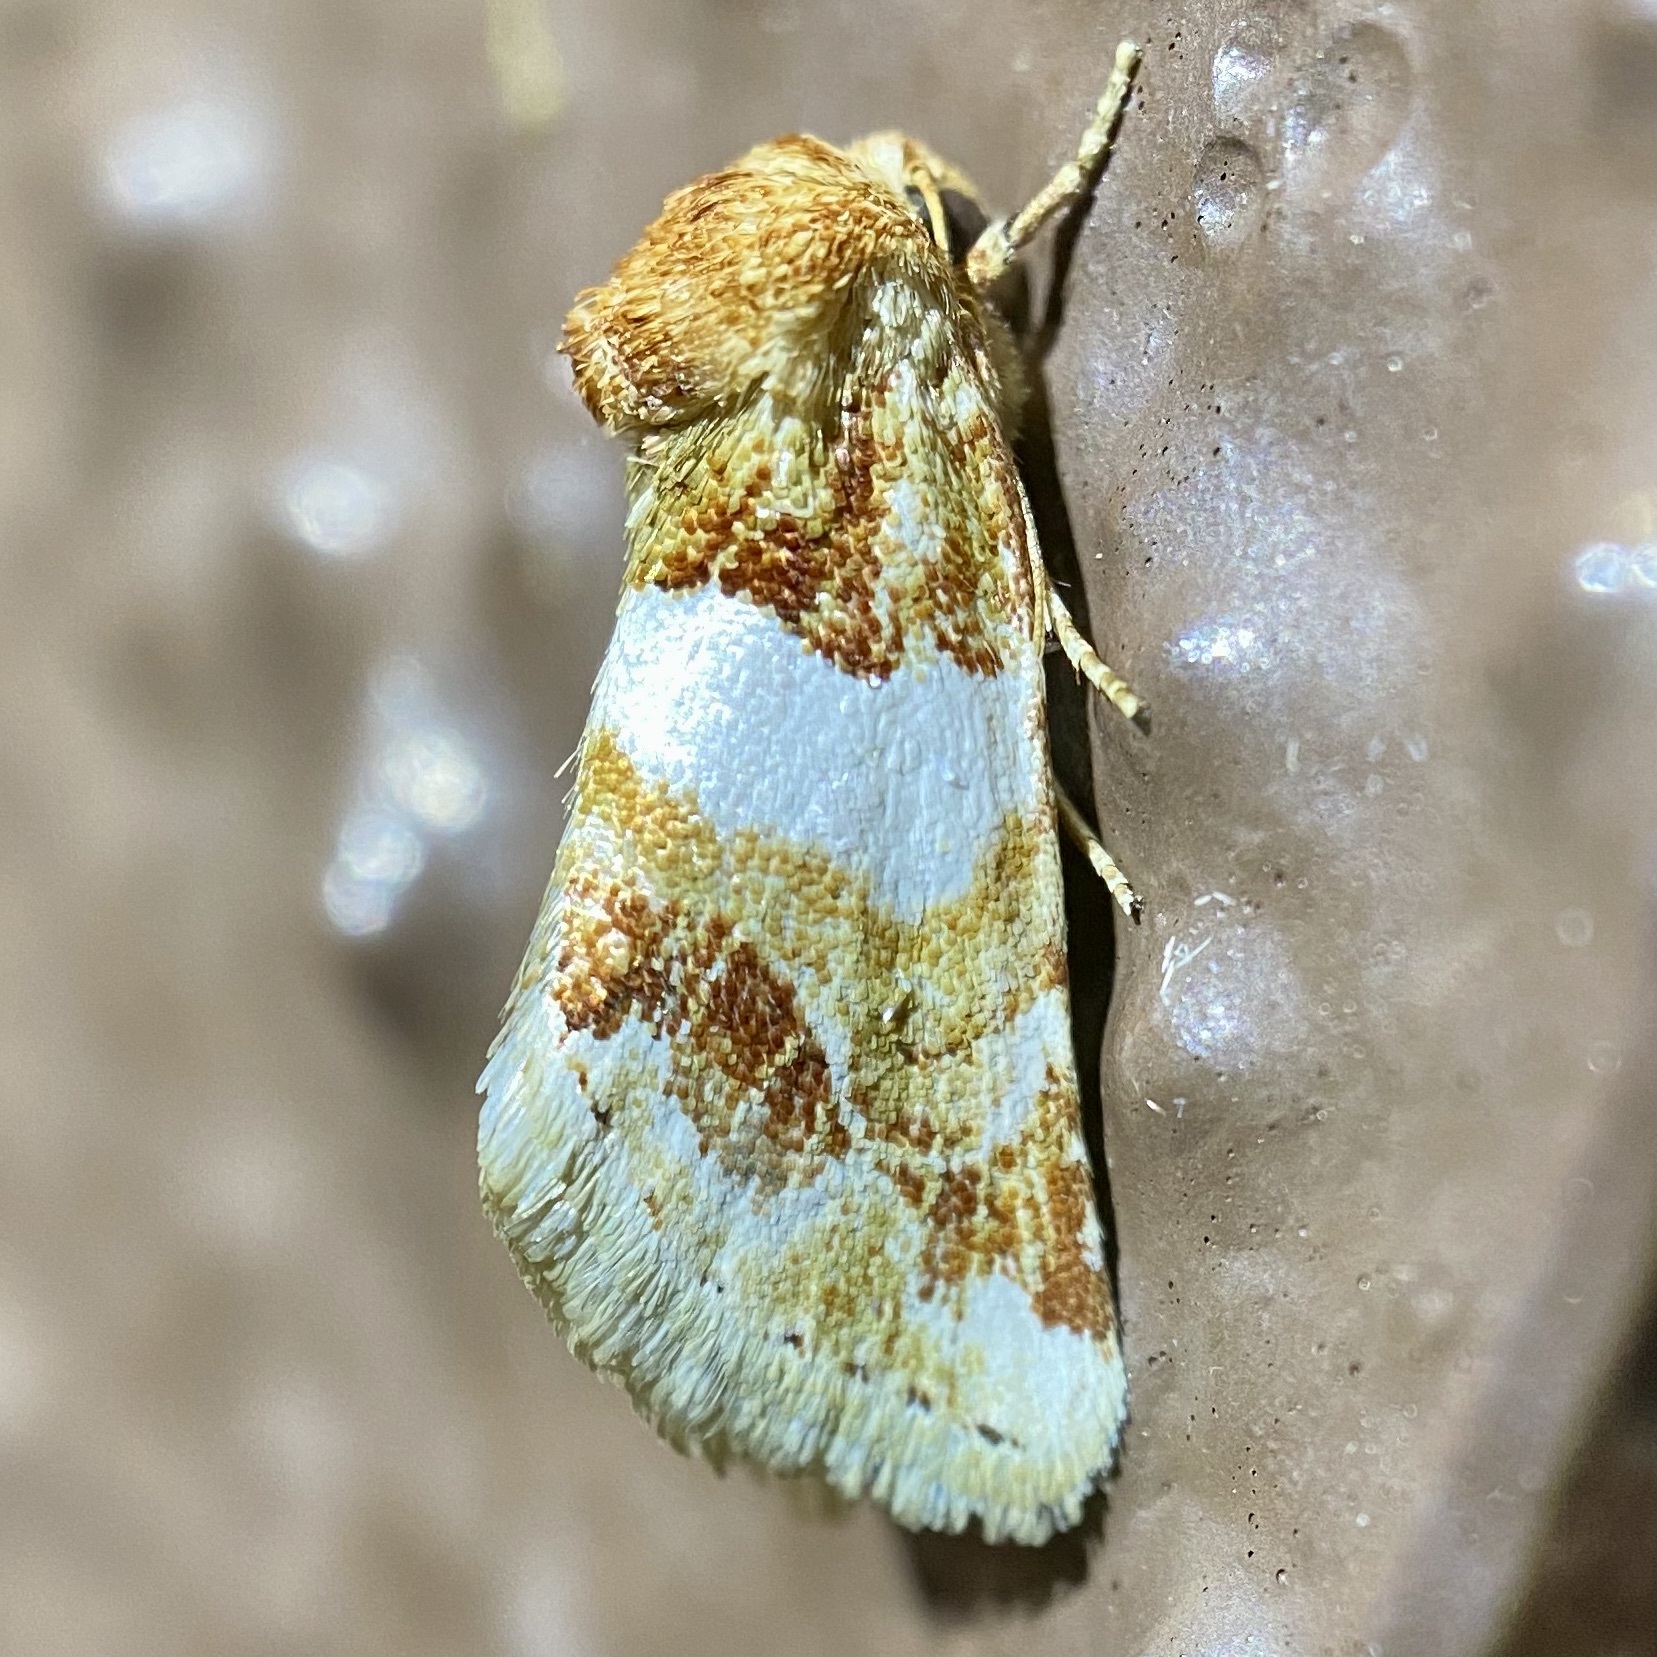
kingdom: Animalia
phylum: Arthropoda
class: Insecta
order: Lepidoptera
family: Noctuidae
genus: Schinia
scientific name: Schinia argentifascia
